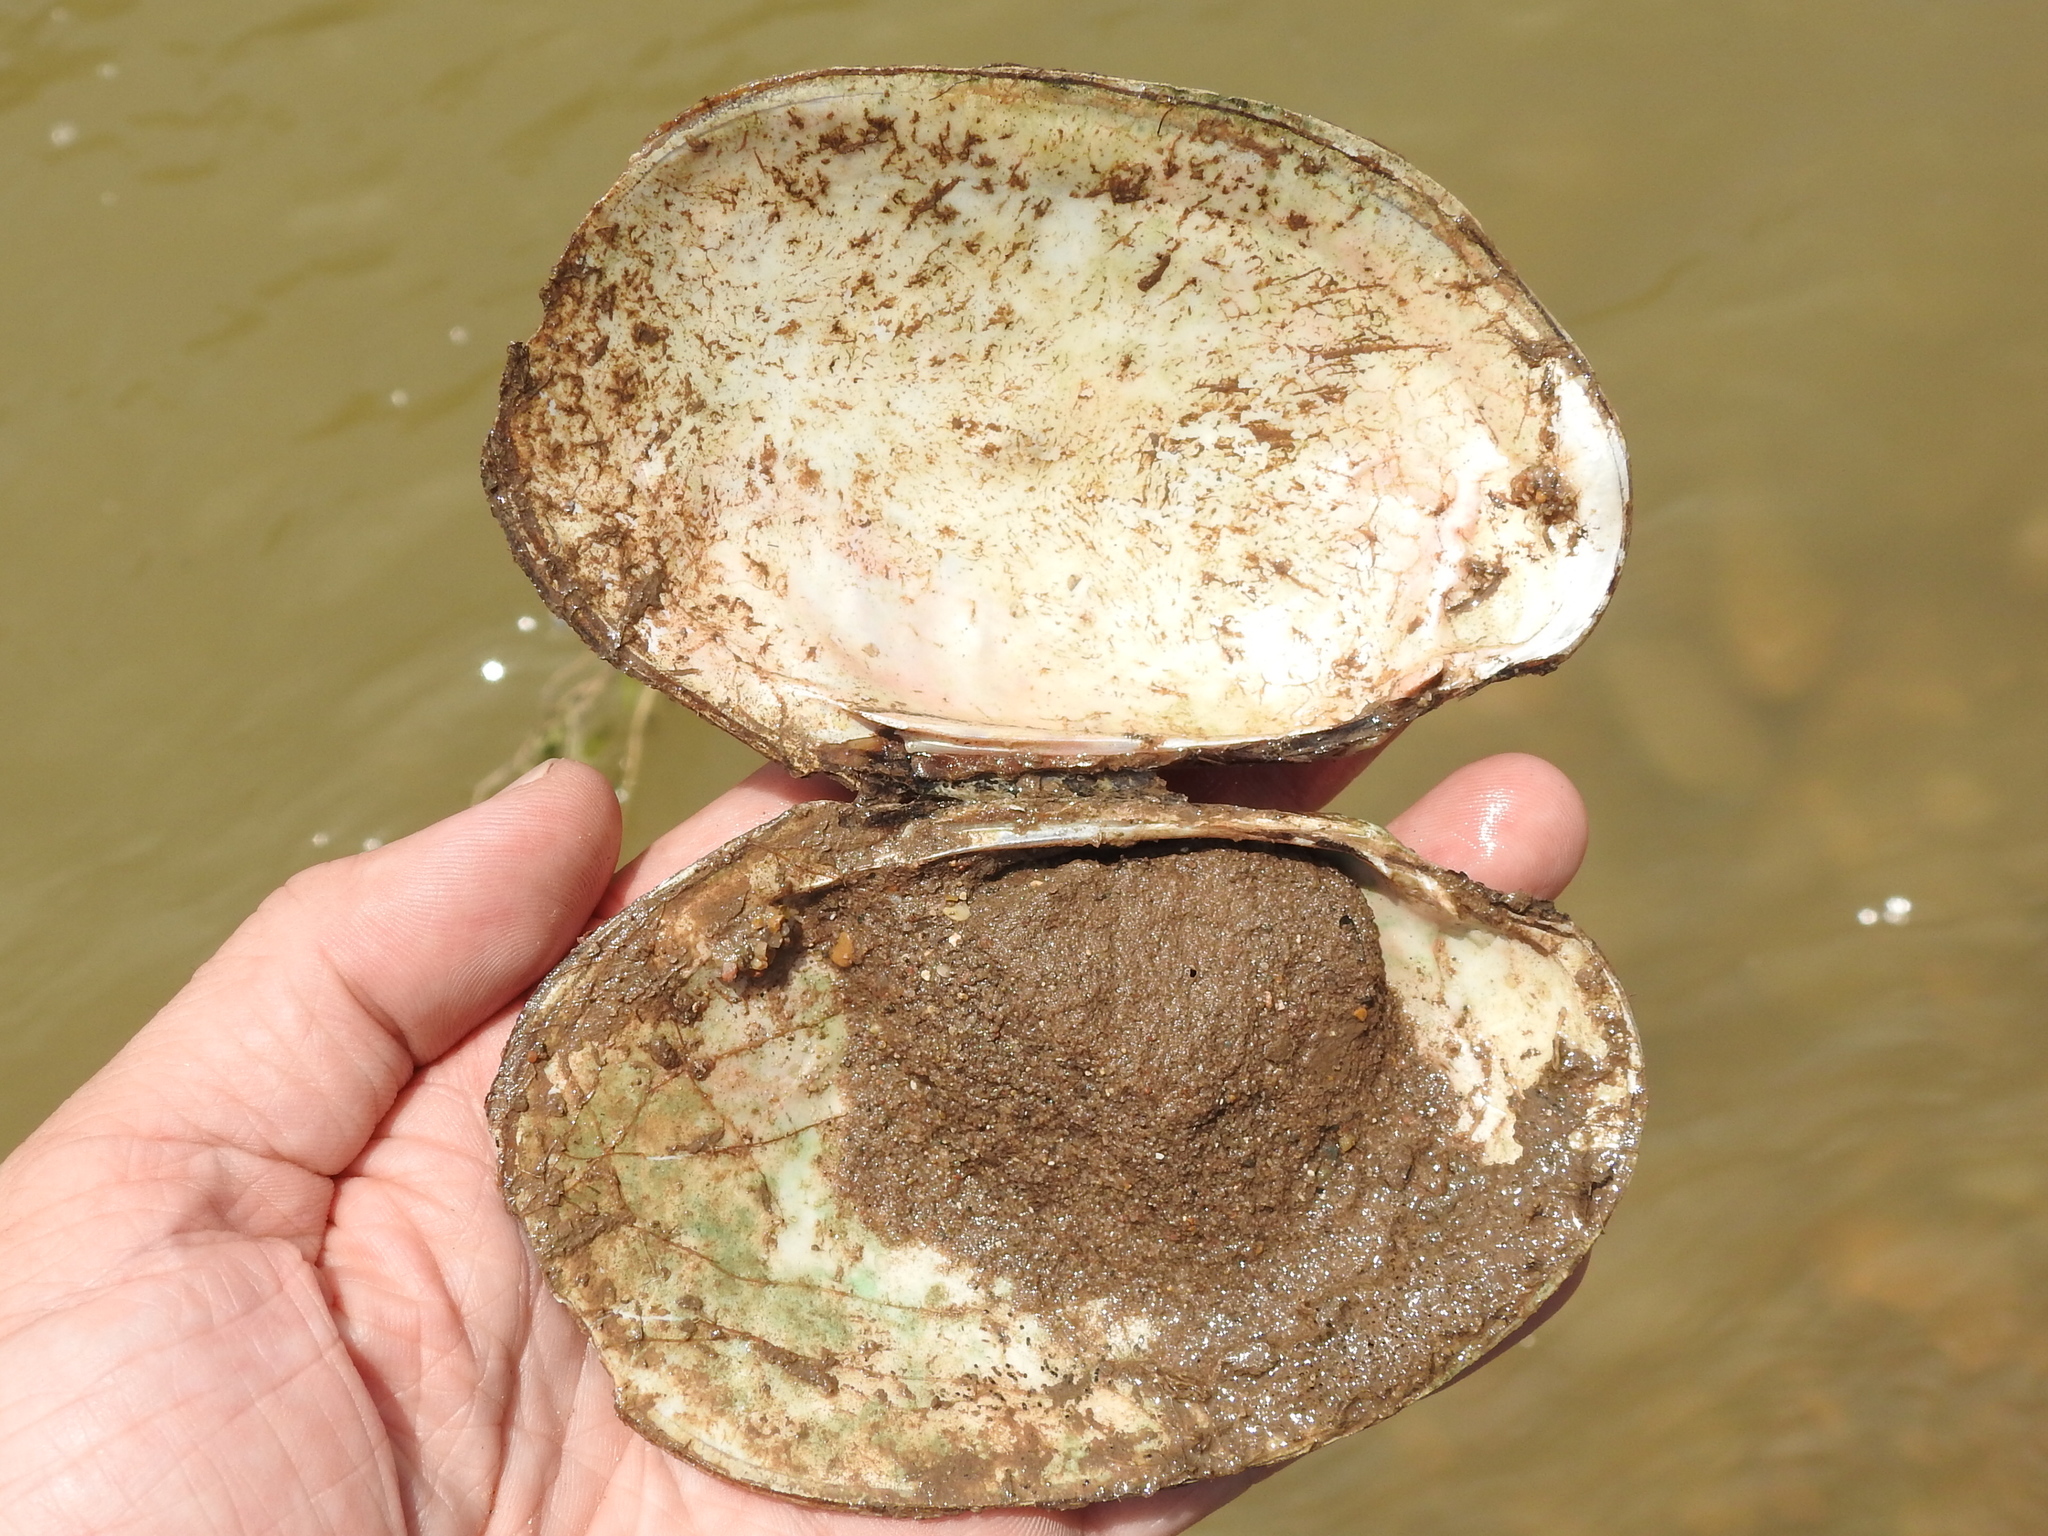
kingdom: Animalia
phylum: Mollusca
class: Bivalvia
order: Unionida
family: Unionidae
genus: Potamilus
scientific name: Potamilus fragilis
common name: Fragile papershell
